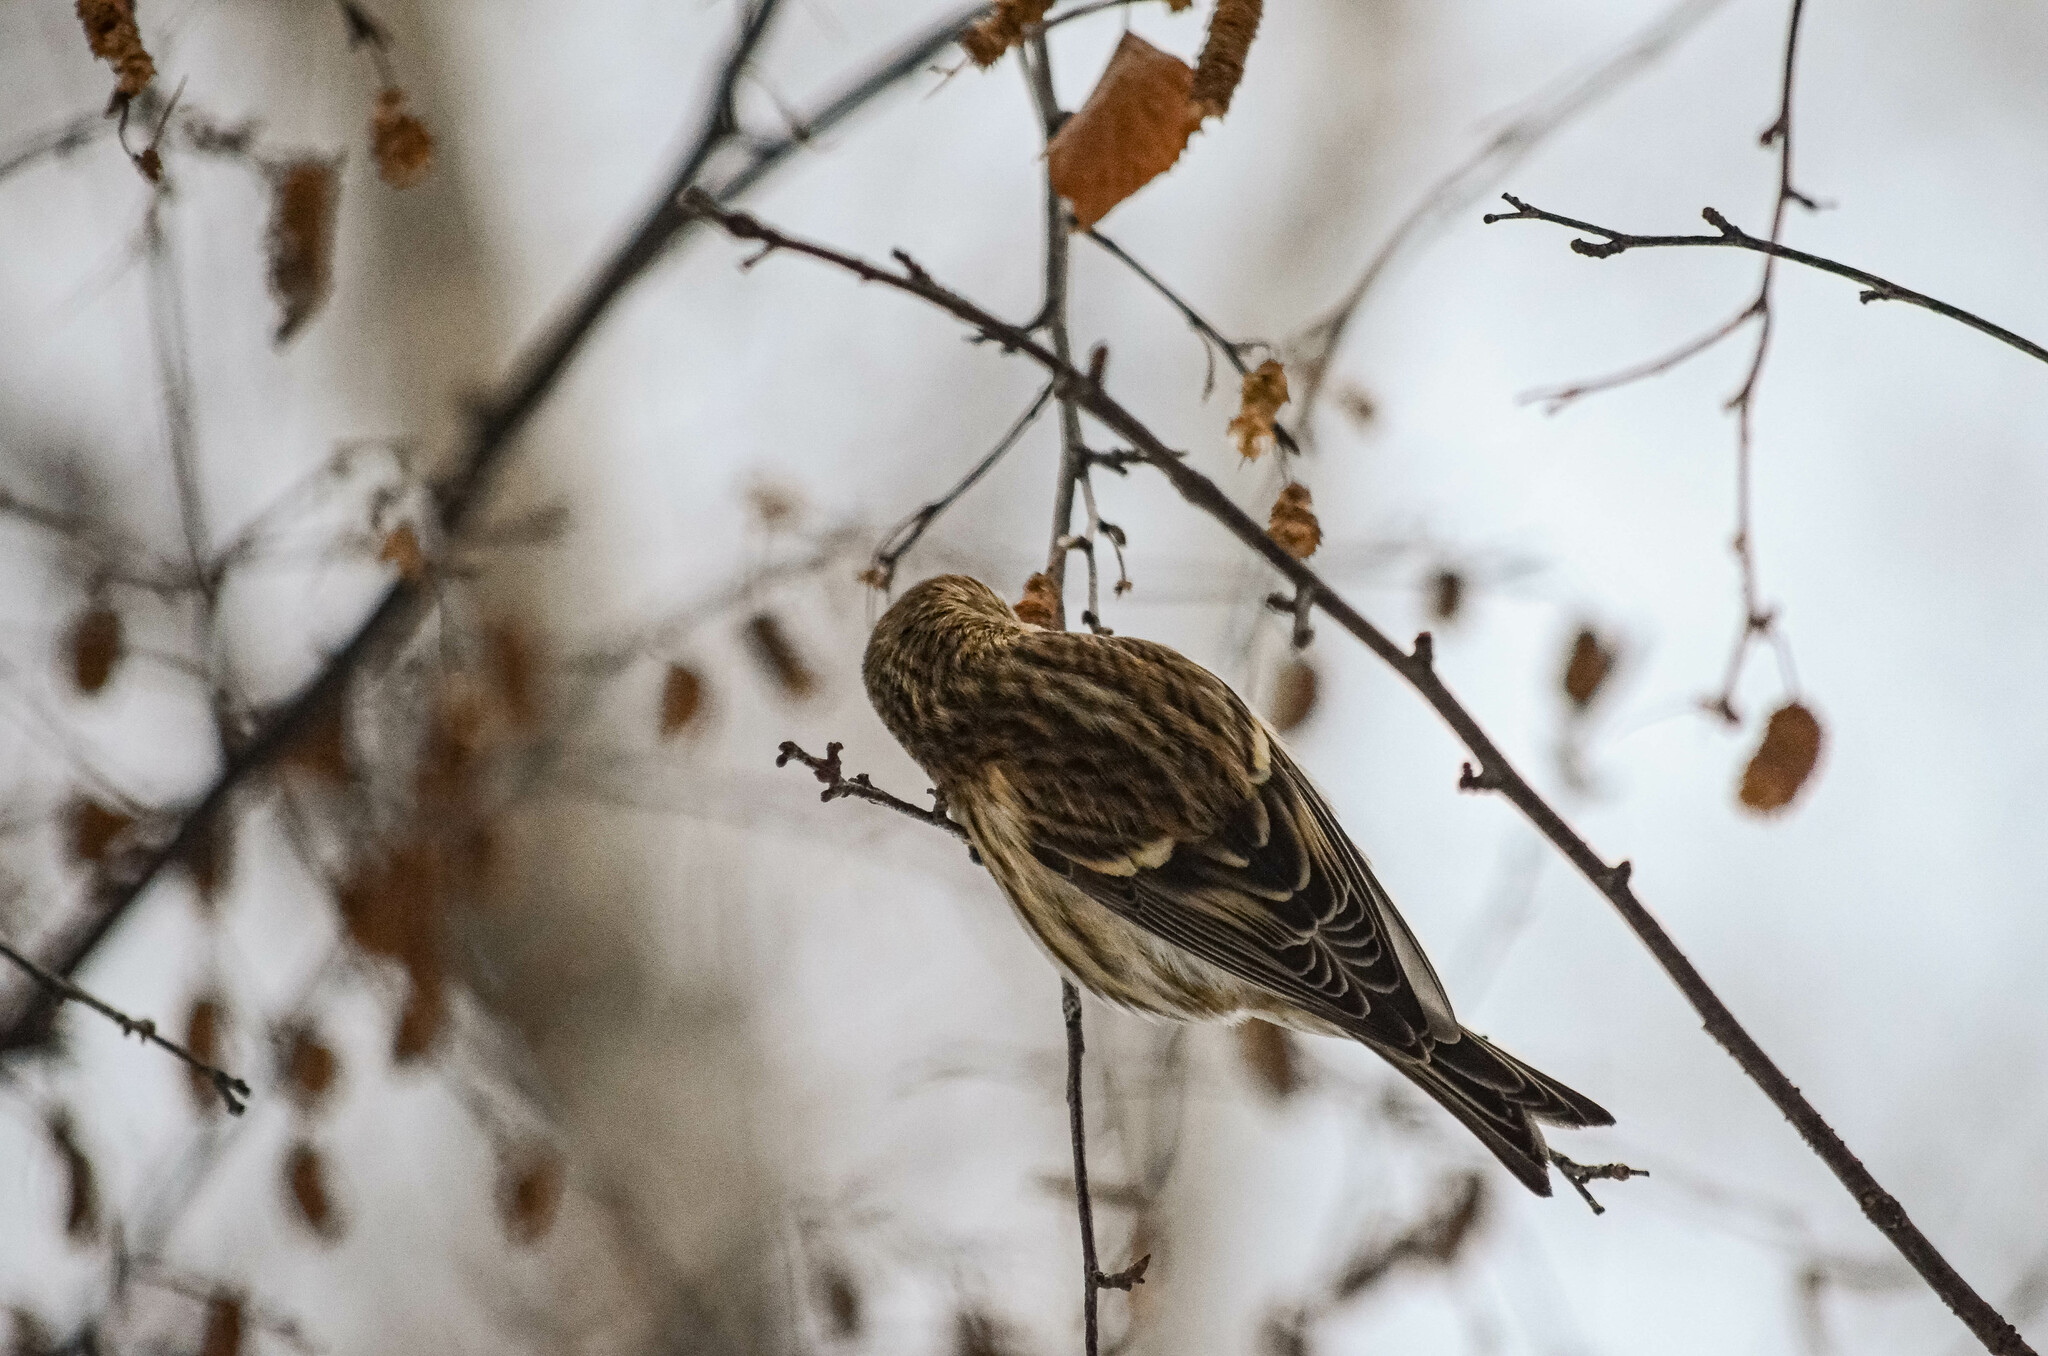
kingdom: Animalia
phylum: Chordata
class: Aves
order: Passeriformes
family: Fringillidae
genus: Acanthis
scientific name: Acanthis flammea
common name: Common redpoll
